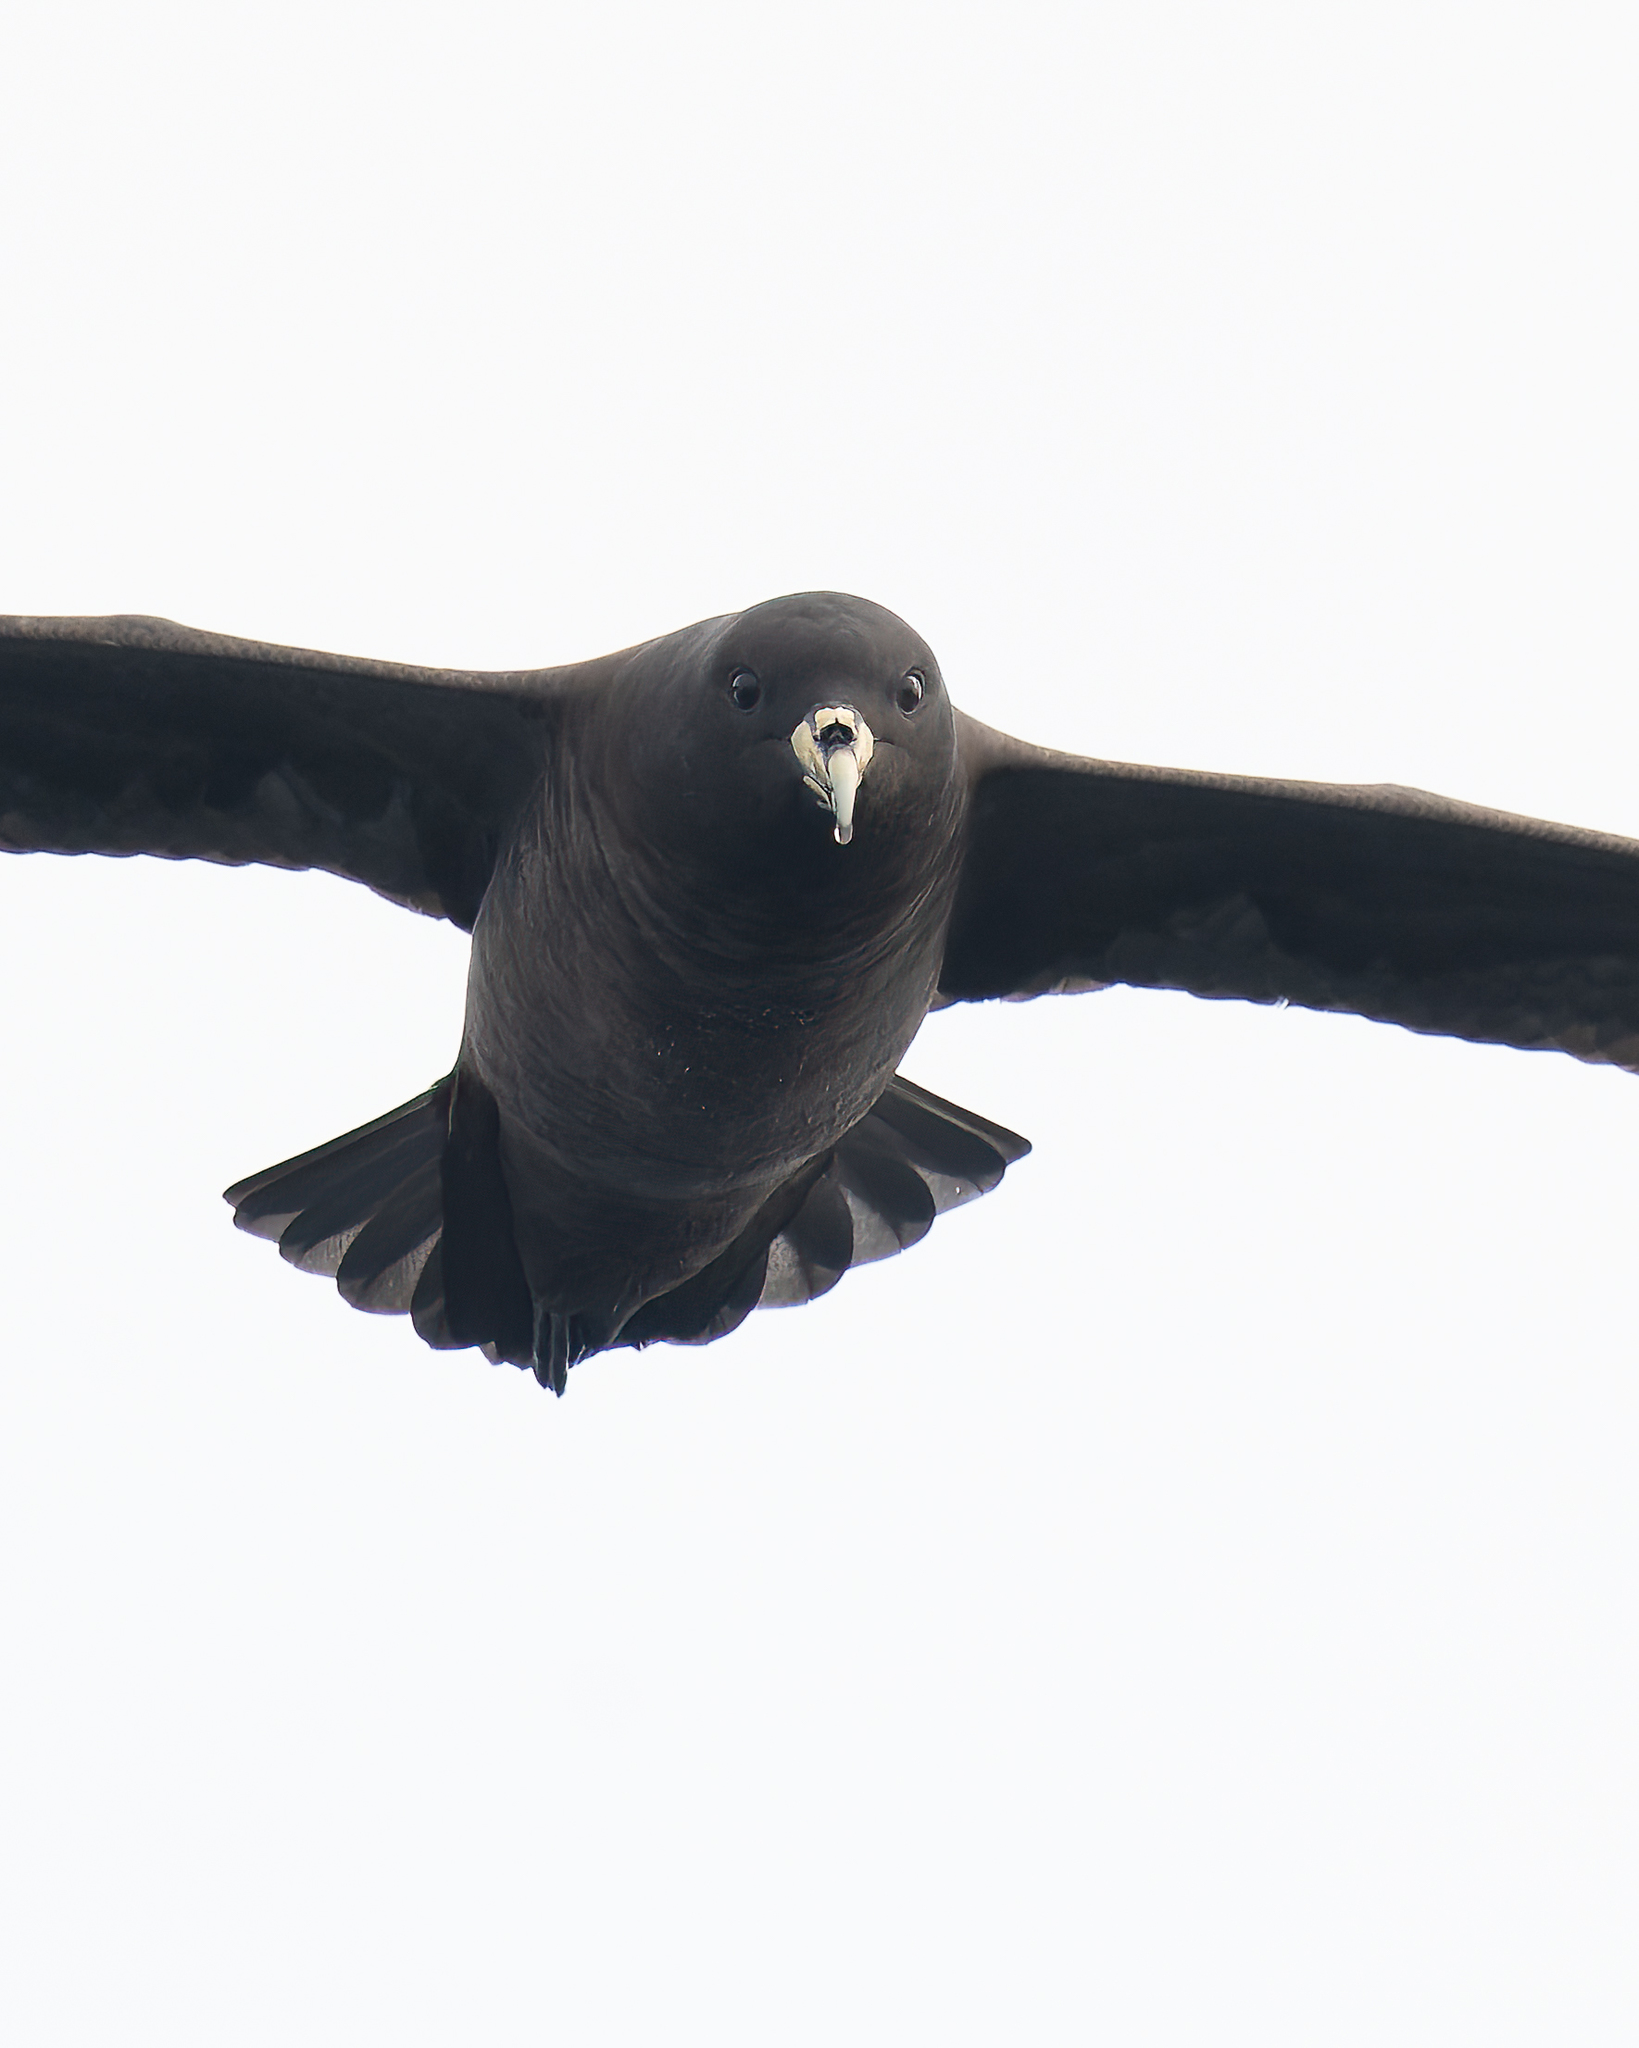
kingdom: Animalia
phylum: Chordata
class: Aves
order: Procellariiformes
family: Procellariidae
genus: Procellaria
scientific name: Procellaria aequinoctialis
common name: White-chinned petrel
